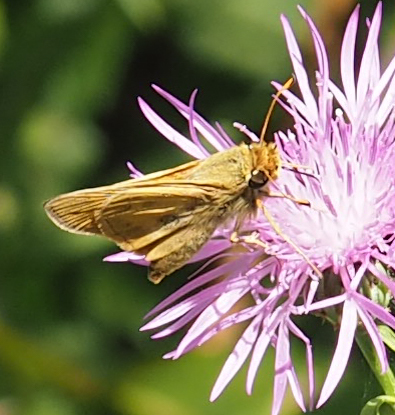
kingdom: Animalia
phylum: Arthropoda
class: Insecta
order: Lepidoptera
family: Hesperiidae
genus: Atalopedes
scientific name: Atalopedes
